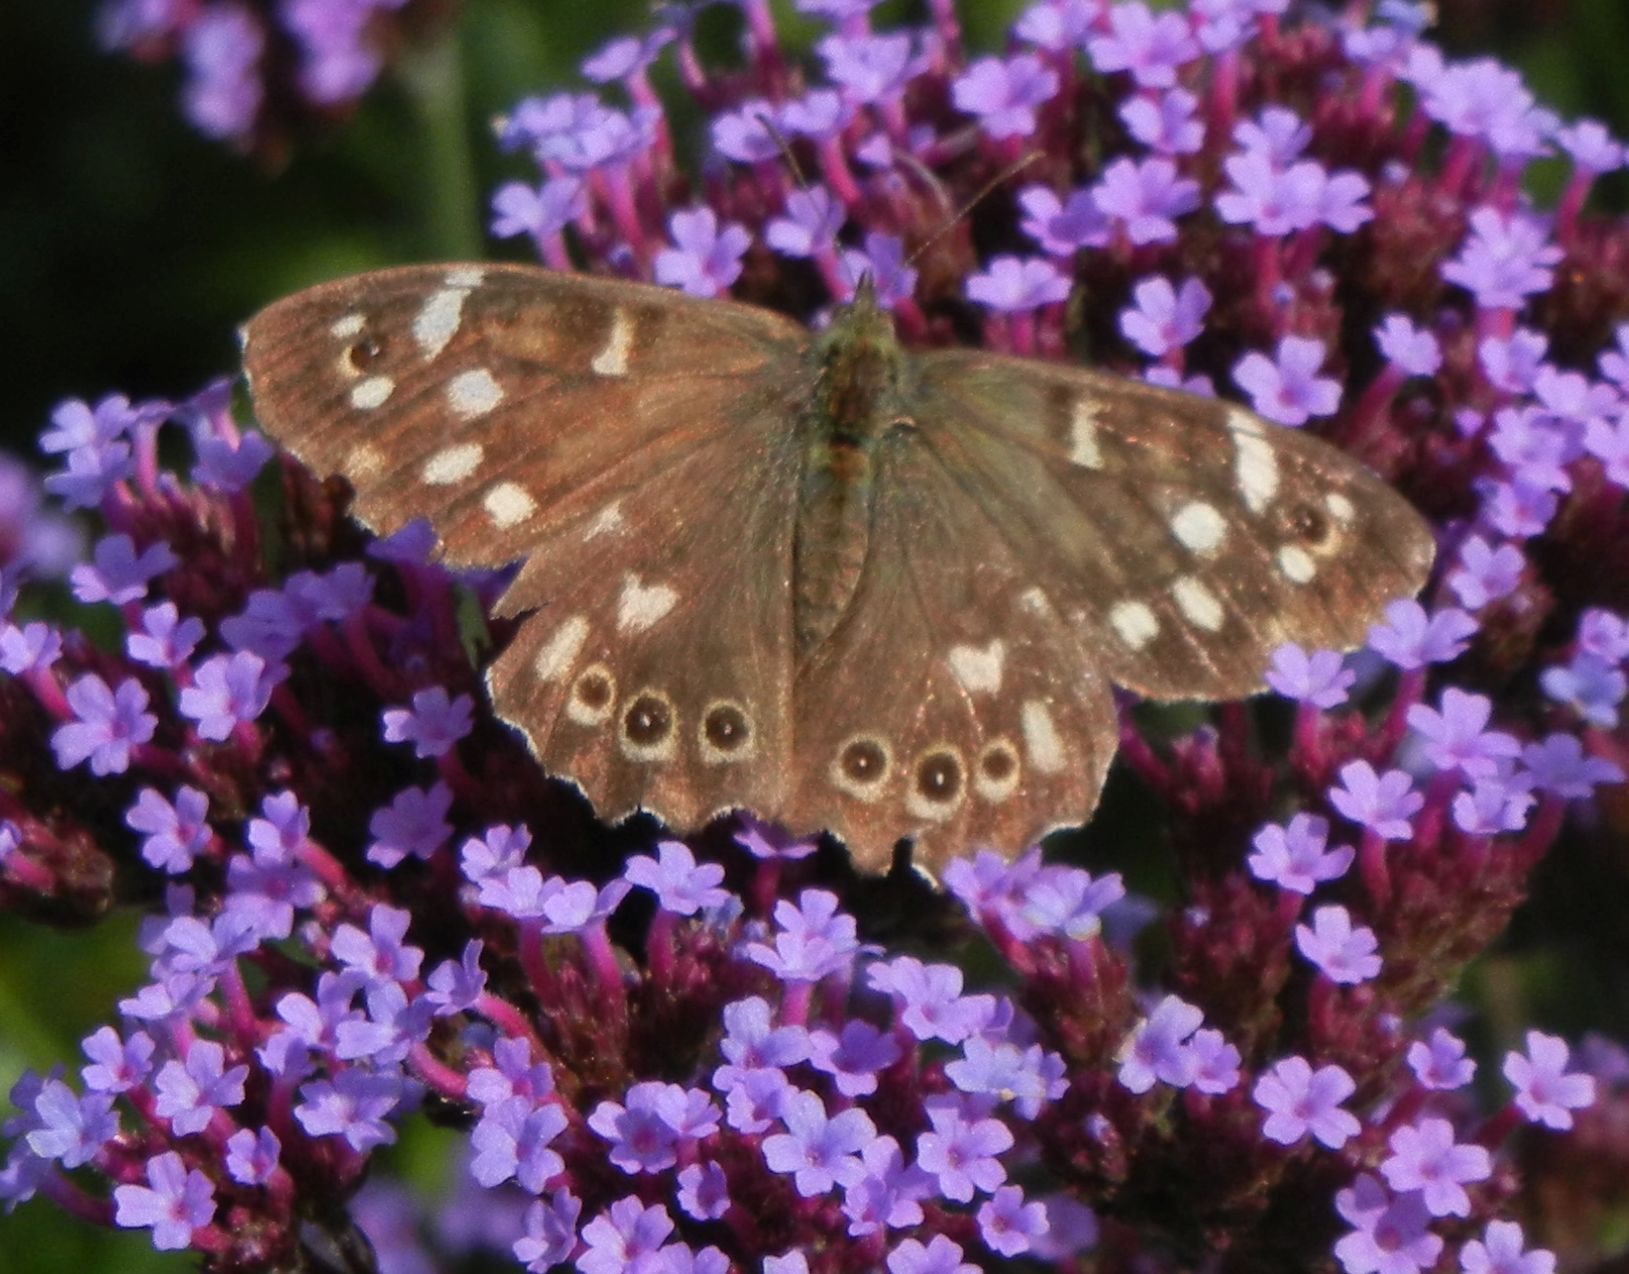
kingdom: Animalia
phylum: Arthropoda
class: Insecta
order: Lepidoptera
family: Nymphalidae
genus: Pararge
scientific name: Pararge aegeria
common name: Speckled wood
